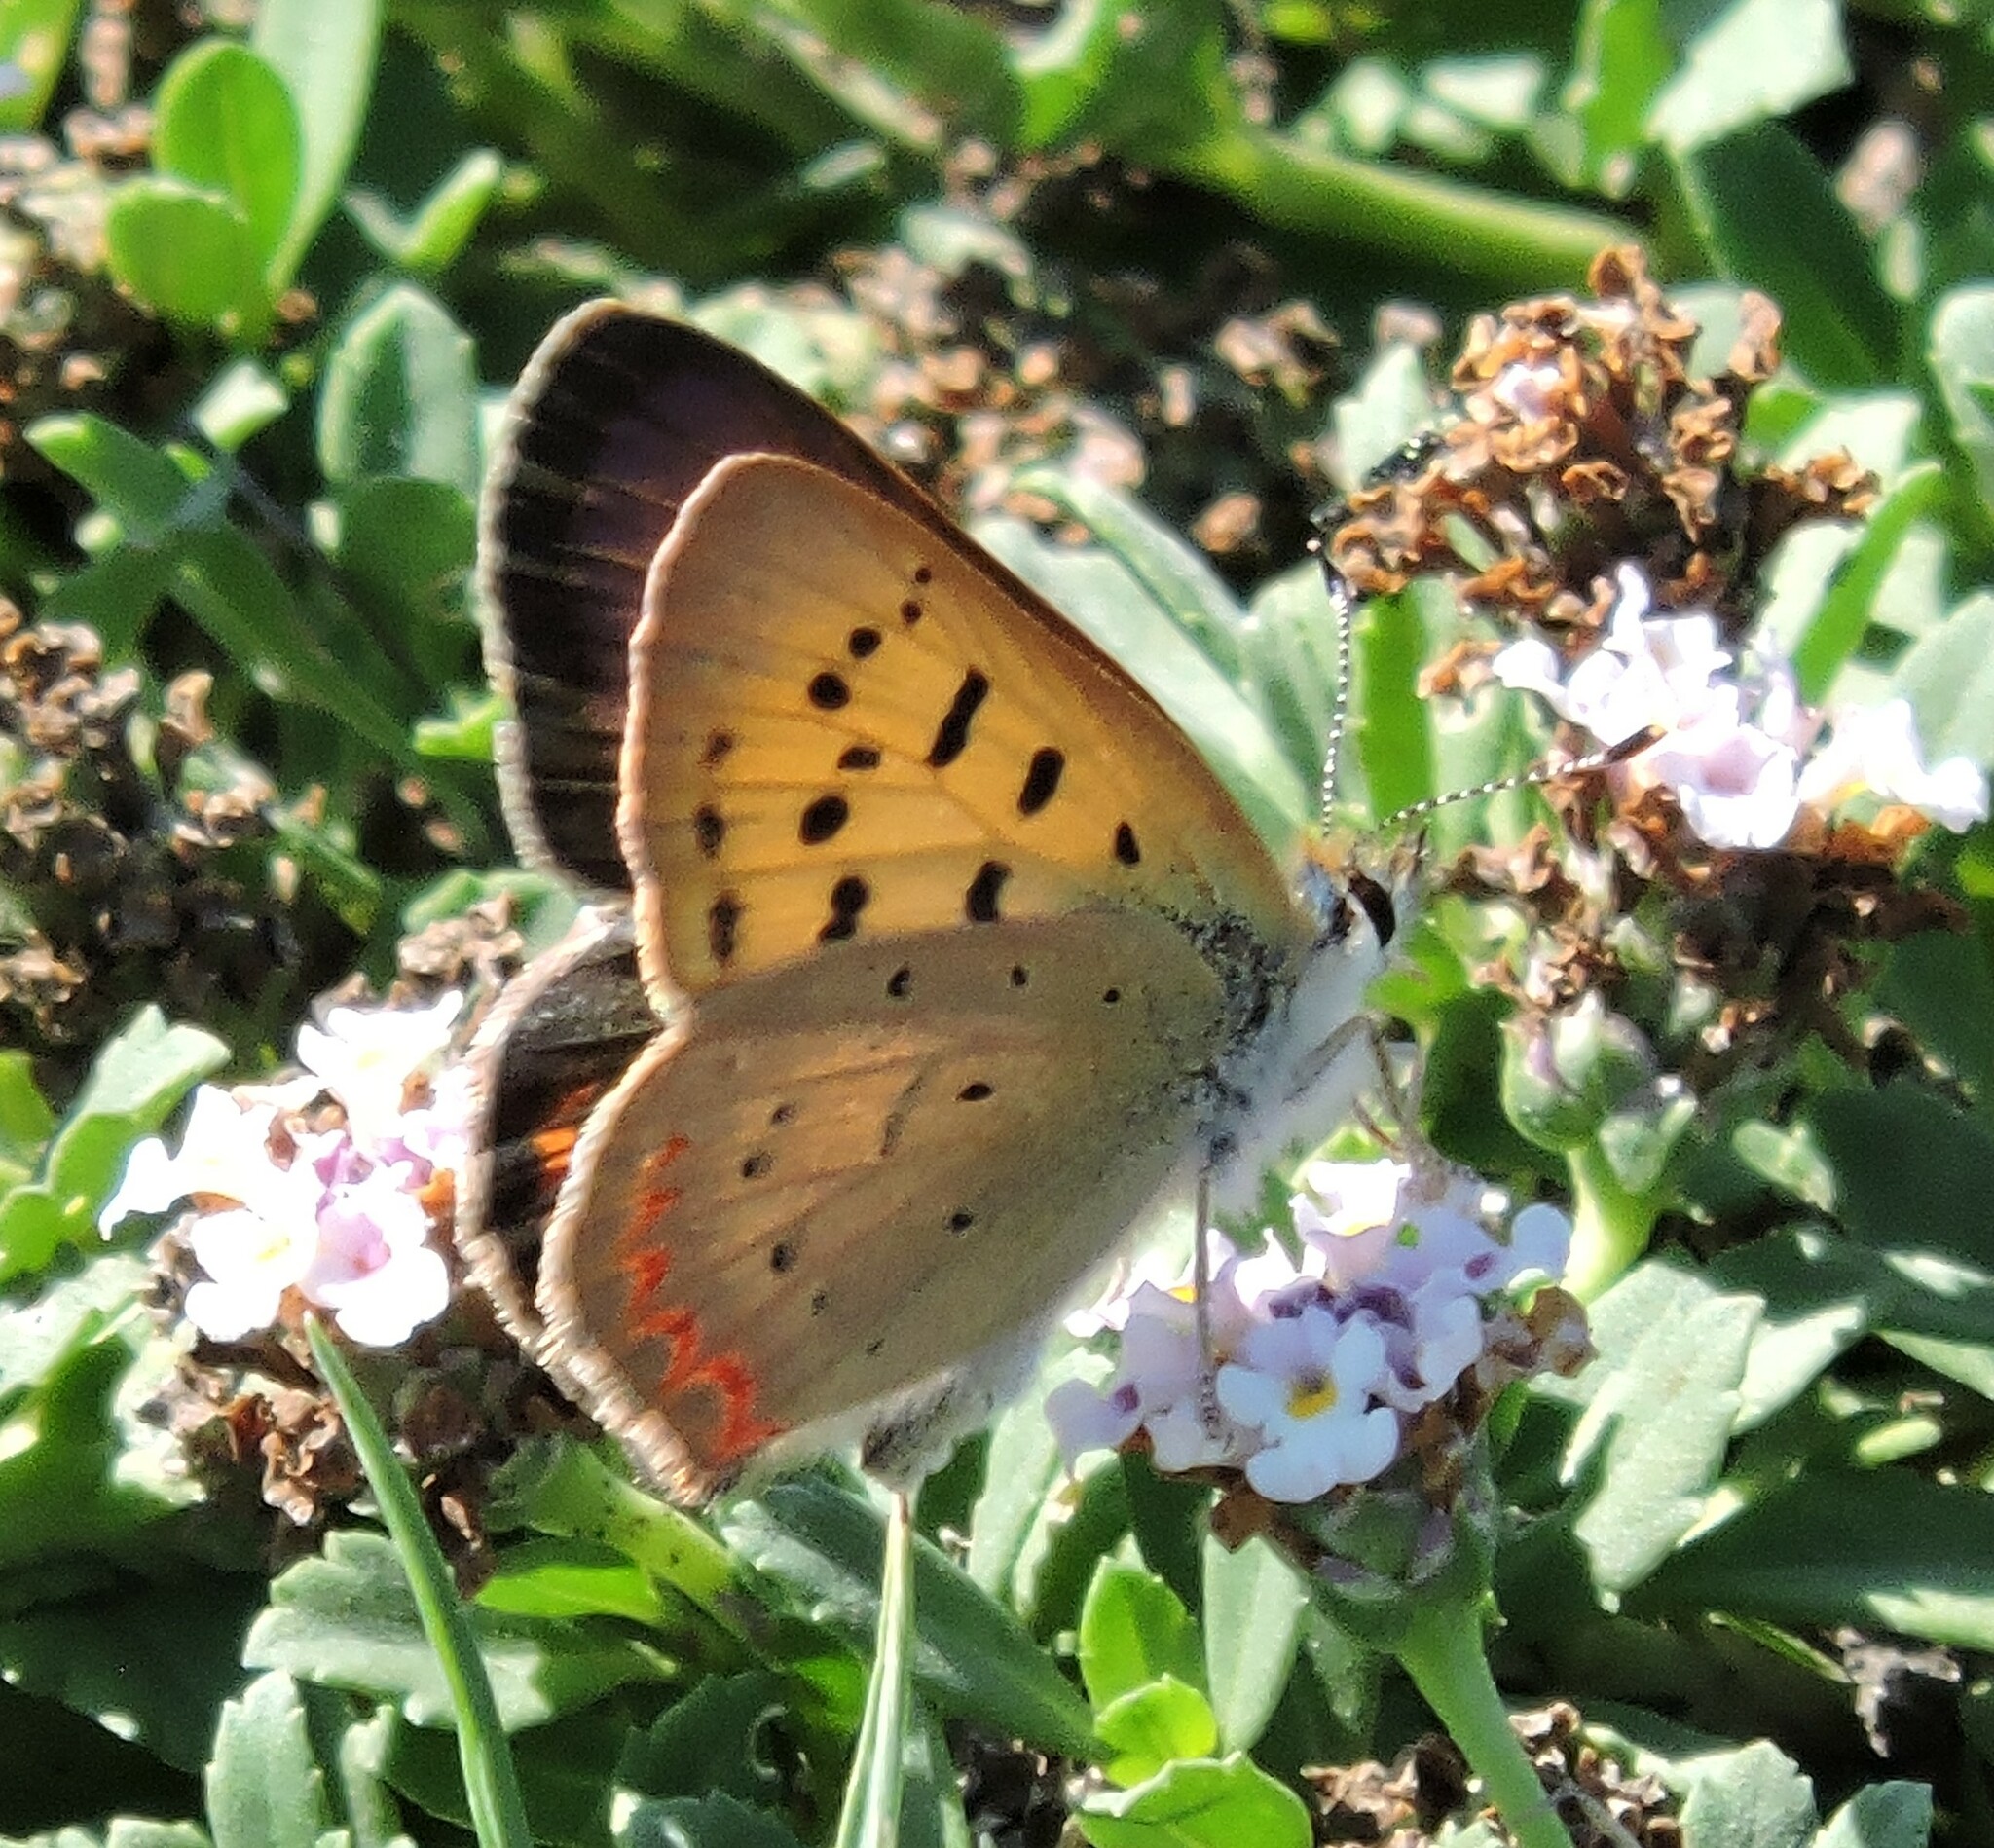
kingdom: Animalia
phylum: Arthropoda
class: Insecta
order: Lepidoptera
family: Lycaenidae
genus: Tharsalea
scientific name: Tharsalea helloides
